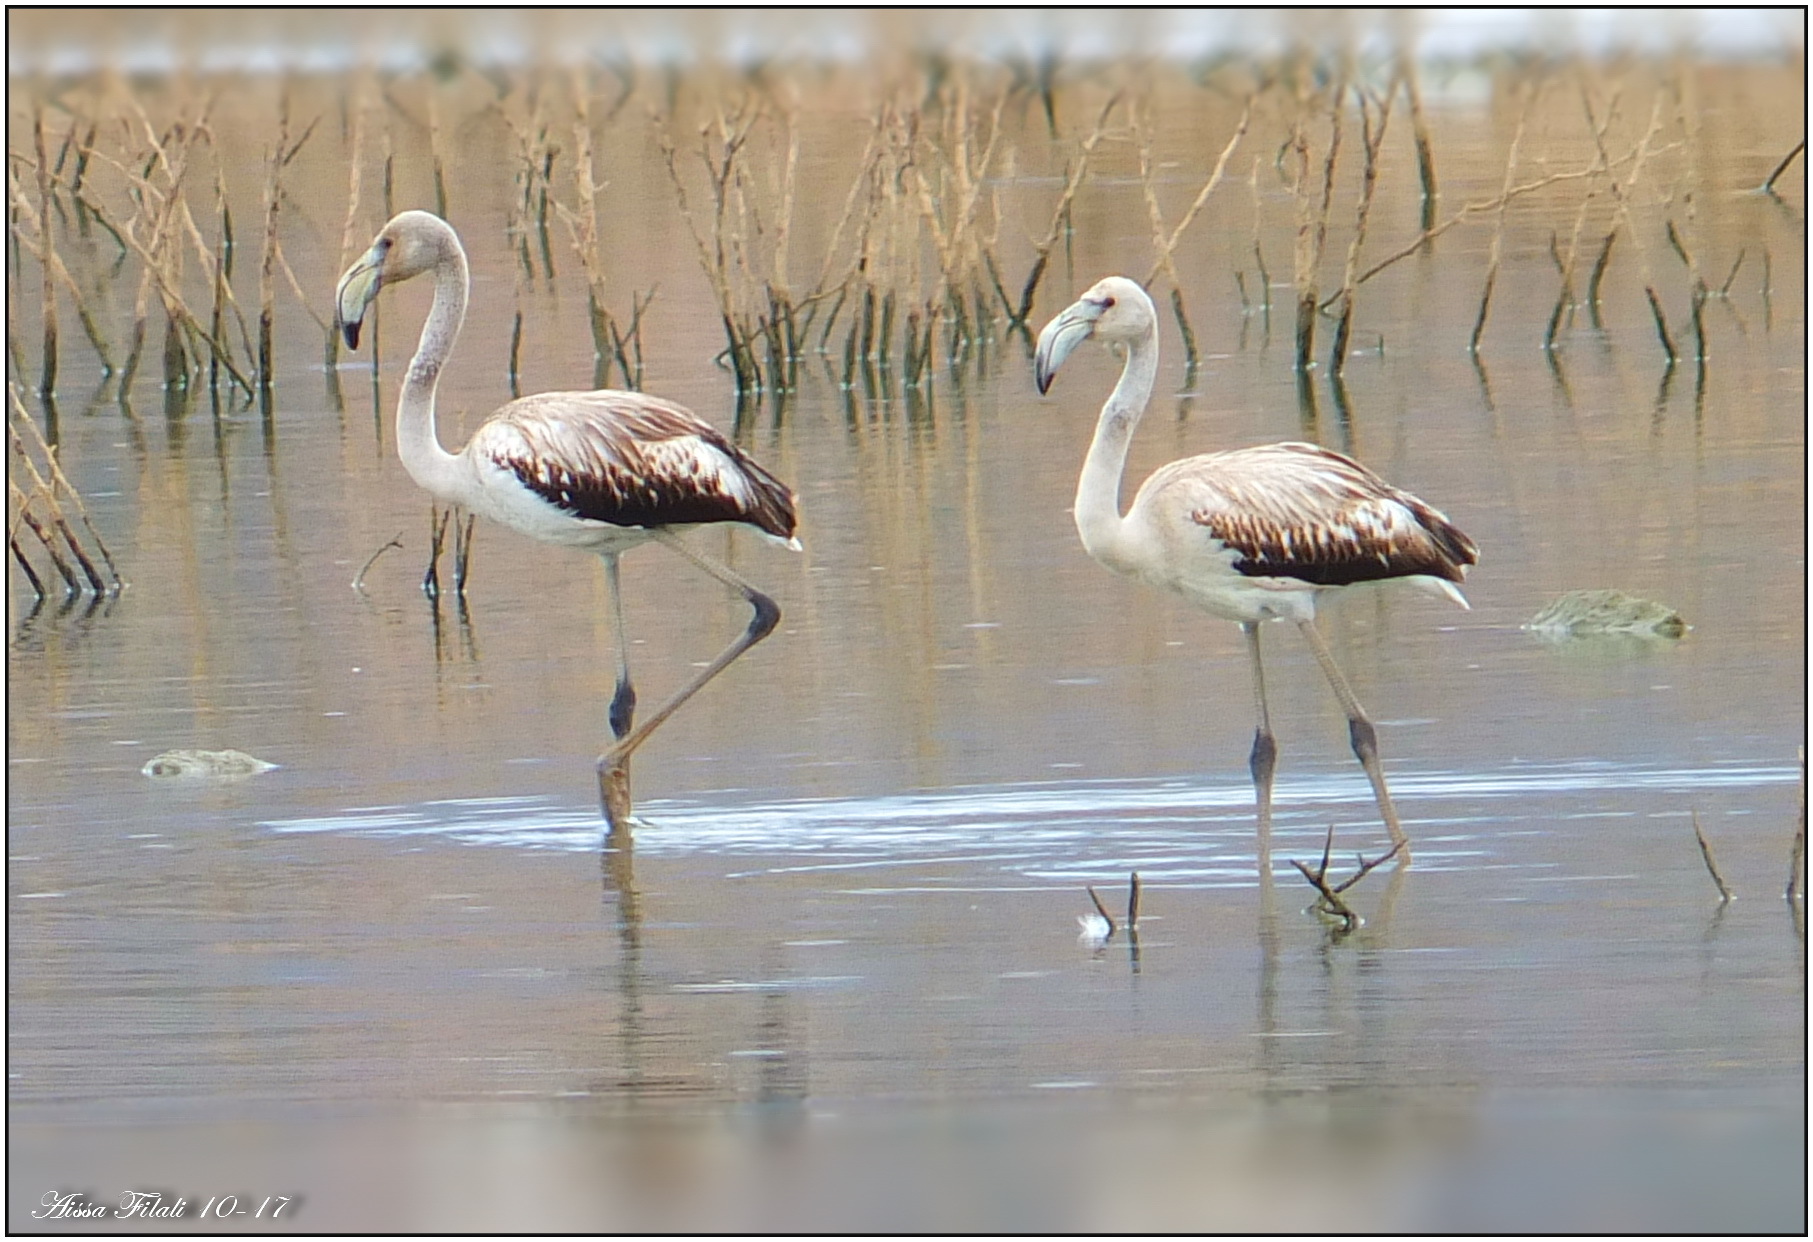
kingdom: Animalia
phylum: Chordata
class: Aves
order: Phoenicopteriformes
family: Phoenicopteridae
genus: Phoenicopterus
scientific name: Phoenicopterus roseus
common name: Greater flamingo
